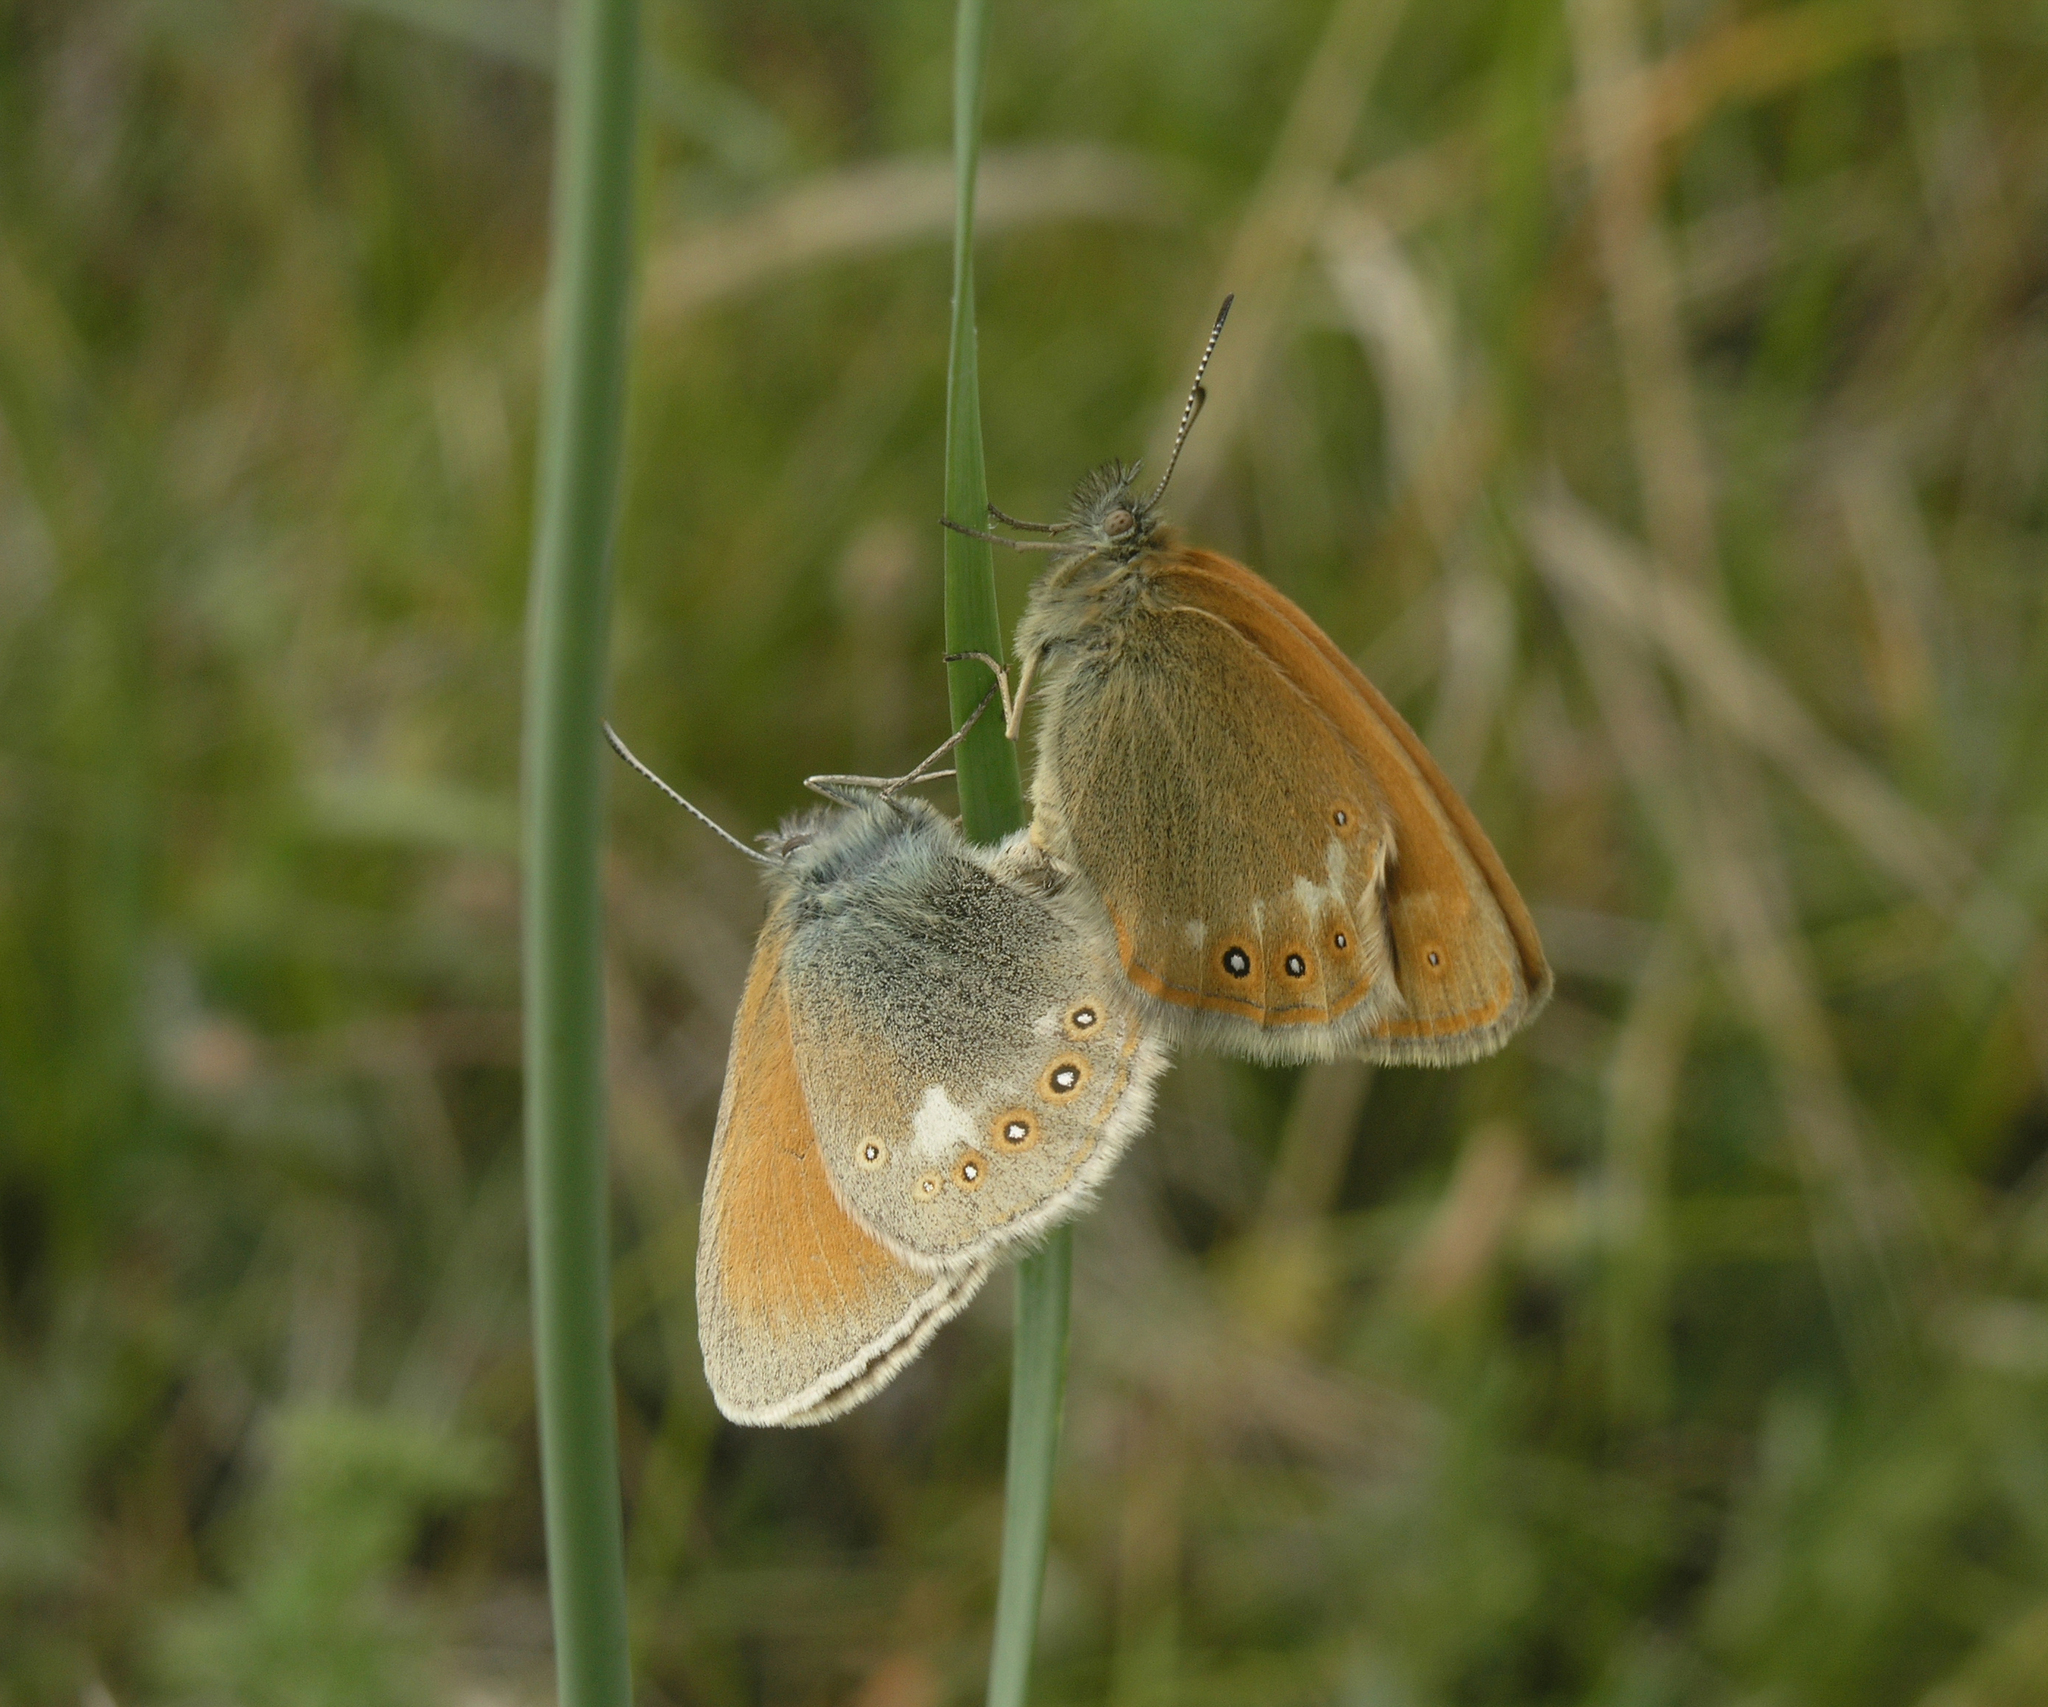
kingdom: Animalia
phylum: Arthropoda
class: Insecta
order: Lepidoptera
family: Nymphalidae
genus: Coenonympha
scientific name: Coenonympha iphis
